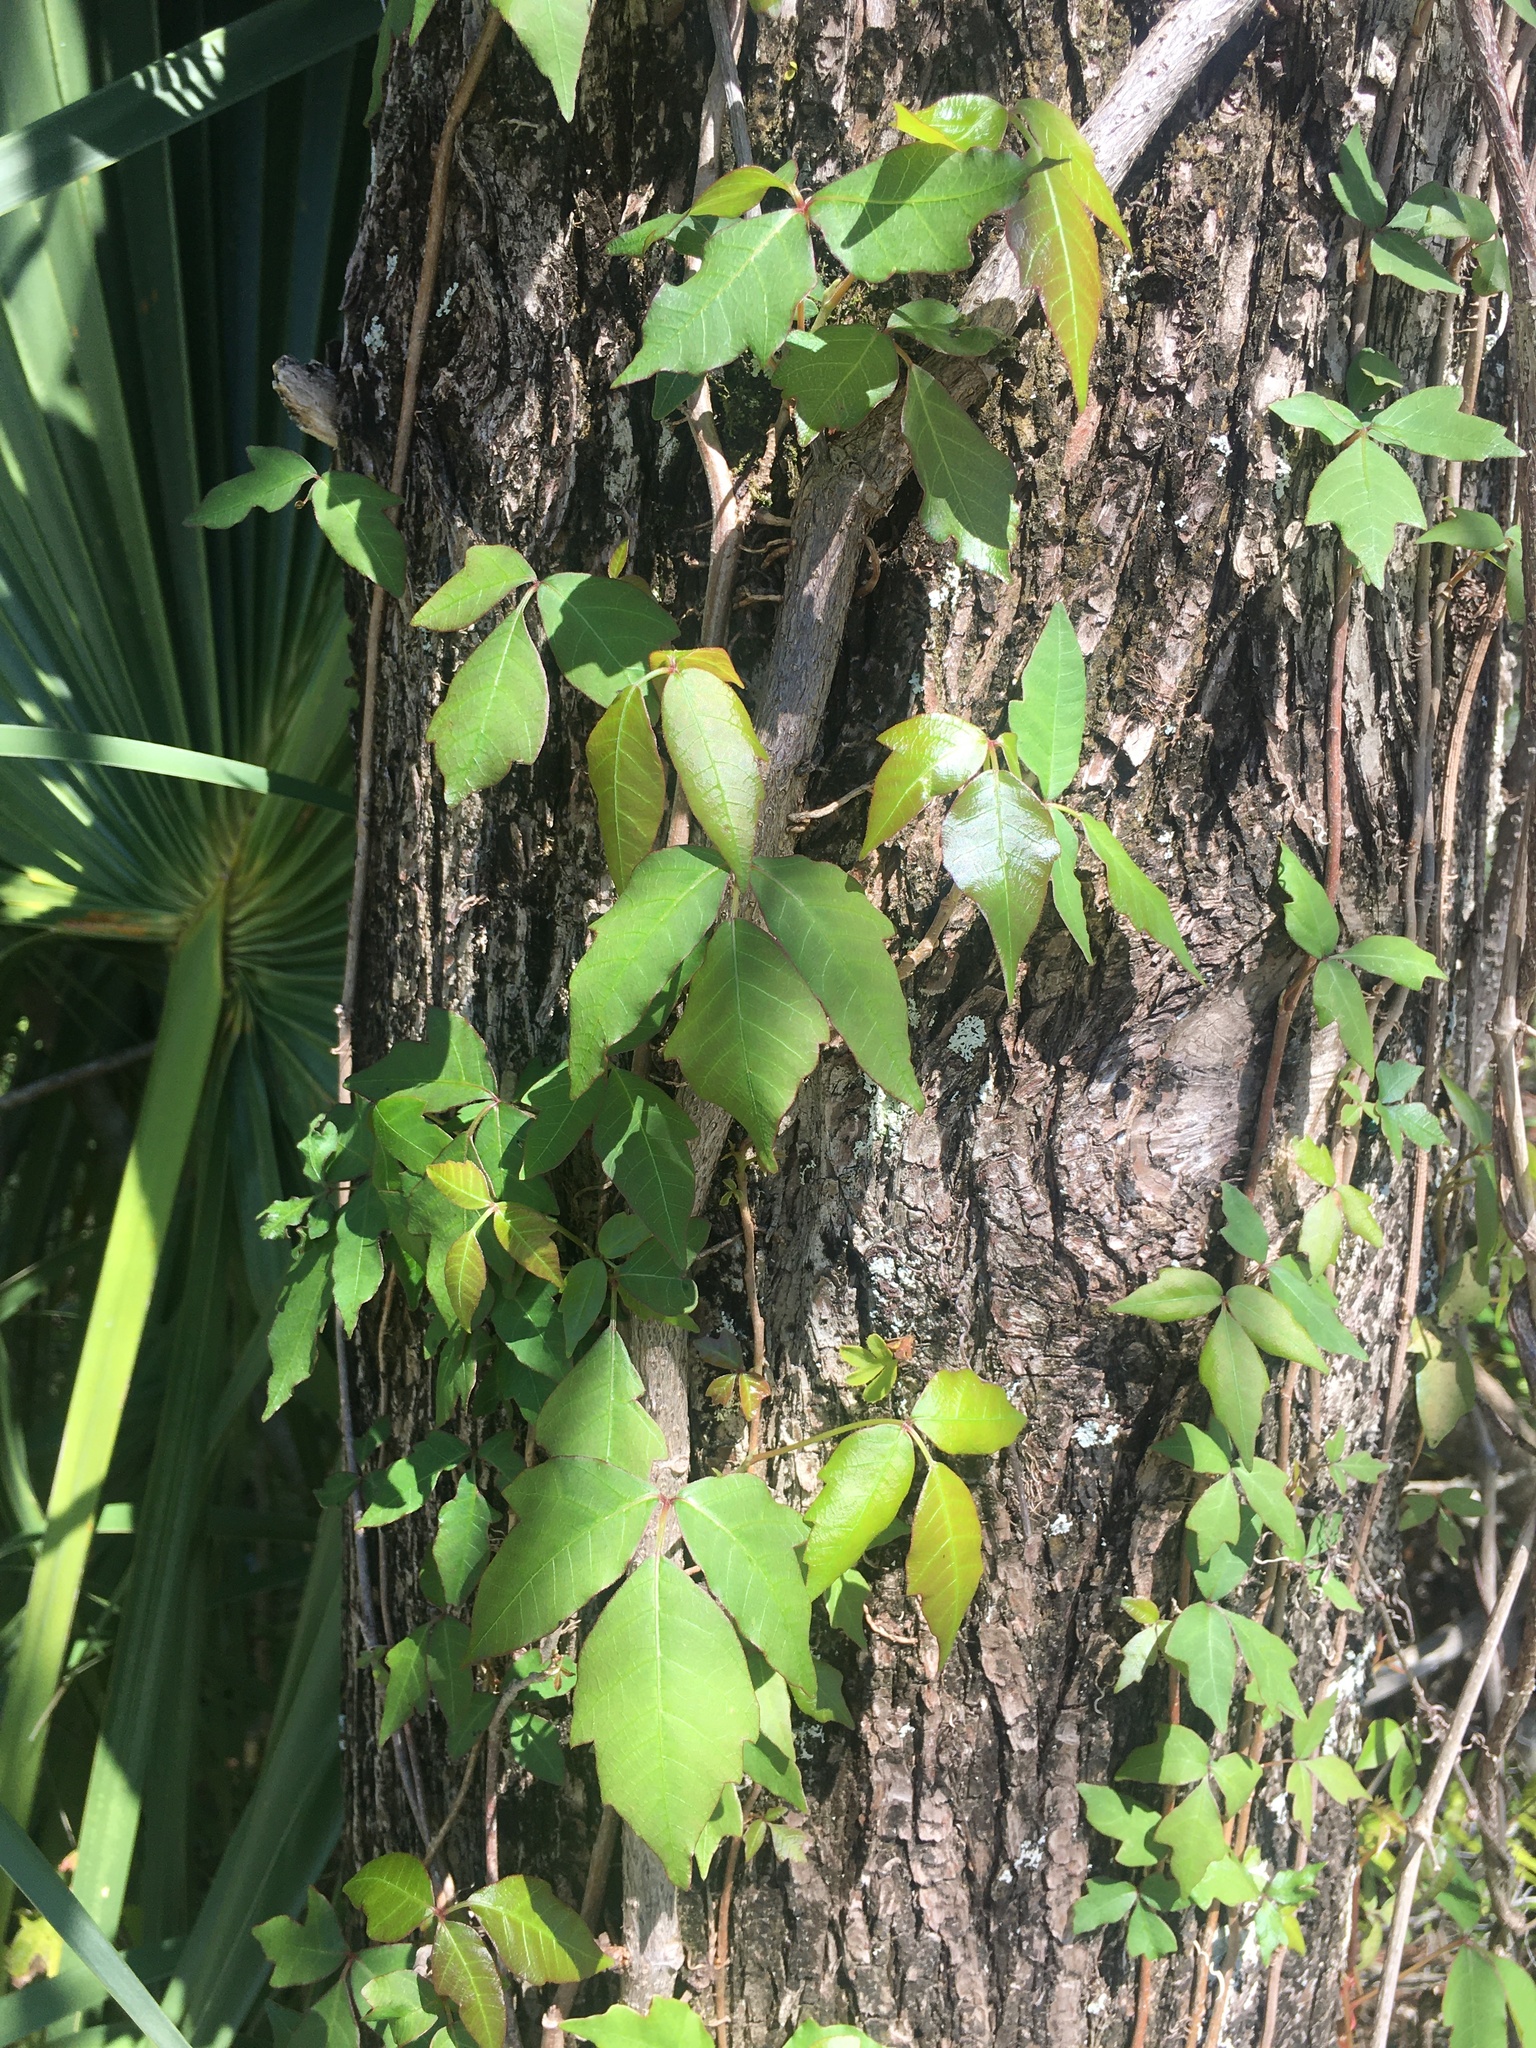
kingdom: Plantae
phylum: Tracheophyta
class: Magnoliopsida
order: Sapindales
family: Anacardiaceae
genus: Toxicodendron
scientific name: Toxicodendron radicans
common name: Poison ivy
